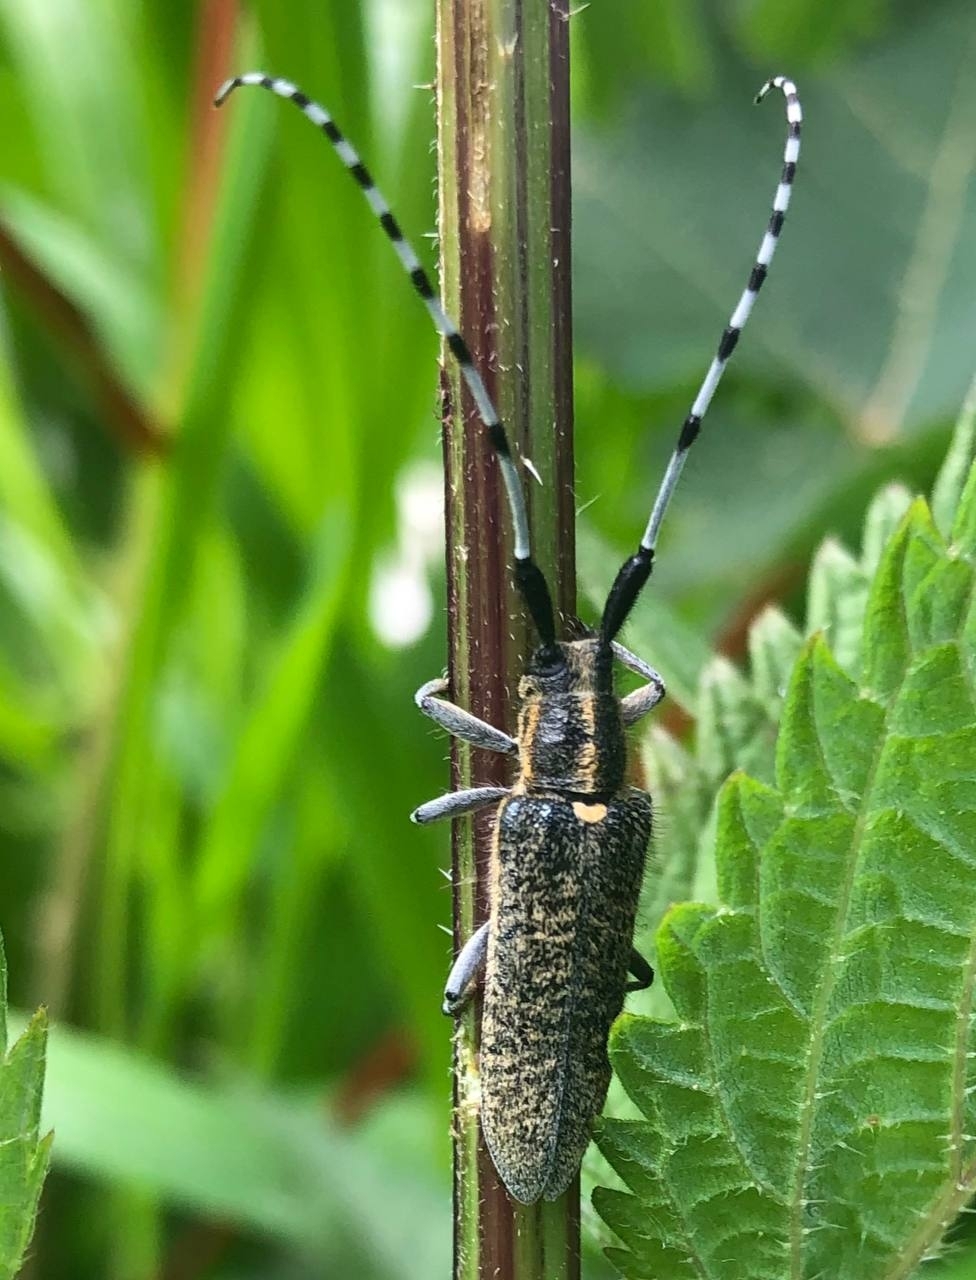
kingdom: Animalia
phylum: Arthropoda
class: Insecta
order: Coleoptera
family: Cerambycidae
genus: Agapanthia
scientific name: Agapanthia villosoviridescens
